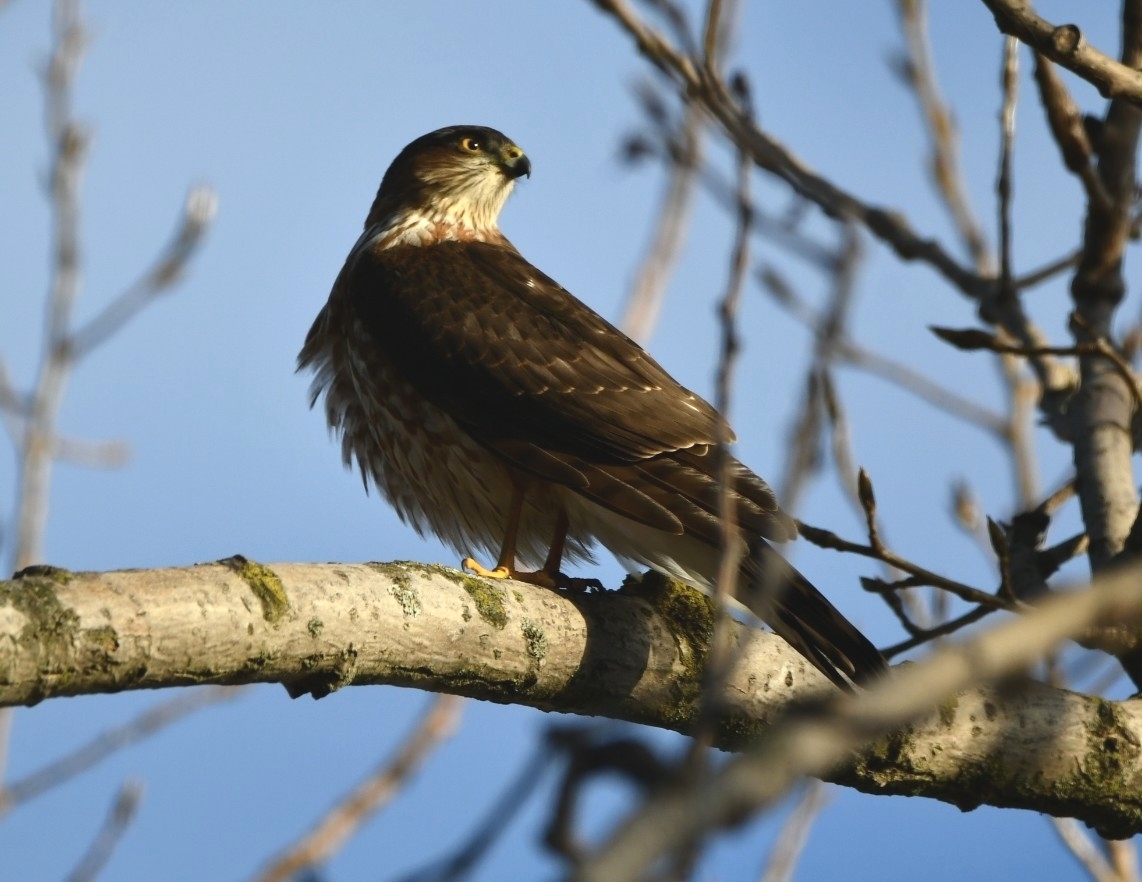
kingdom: Animalia
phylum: Chordata
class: Aves
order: Accipitriformes
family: Accipitridae
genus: Accipiter
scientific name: Accipiter striatus
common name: Sharp-shinned hawk
